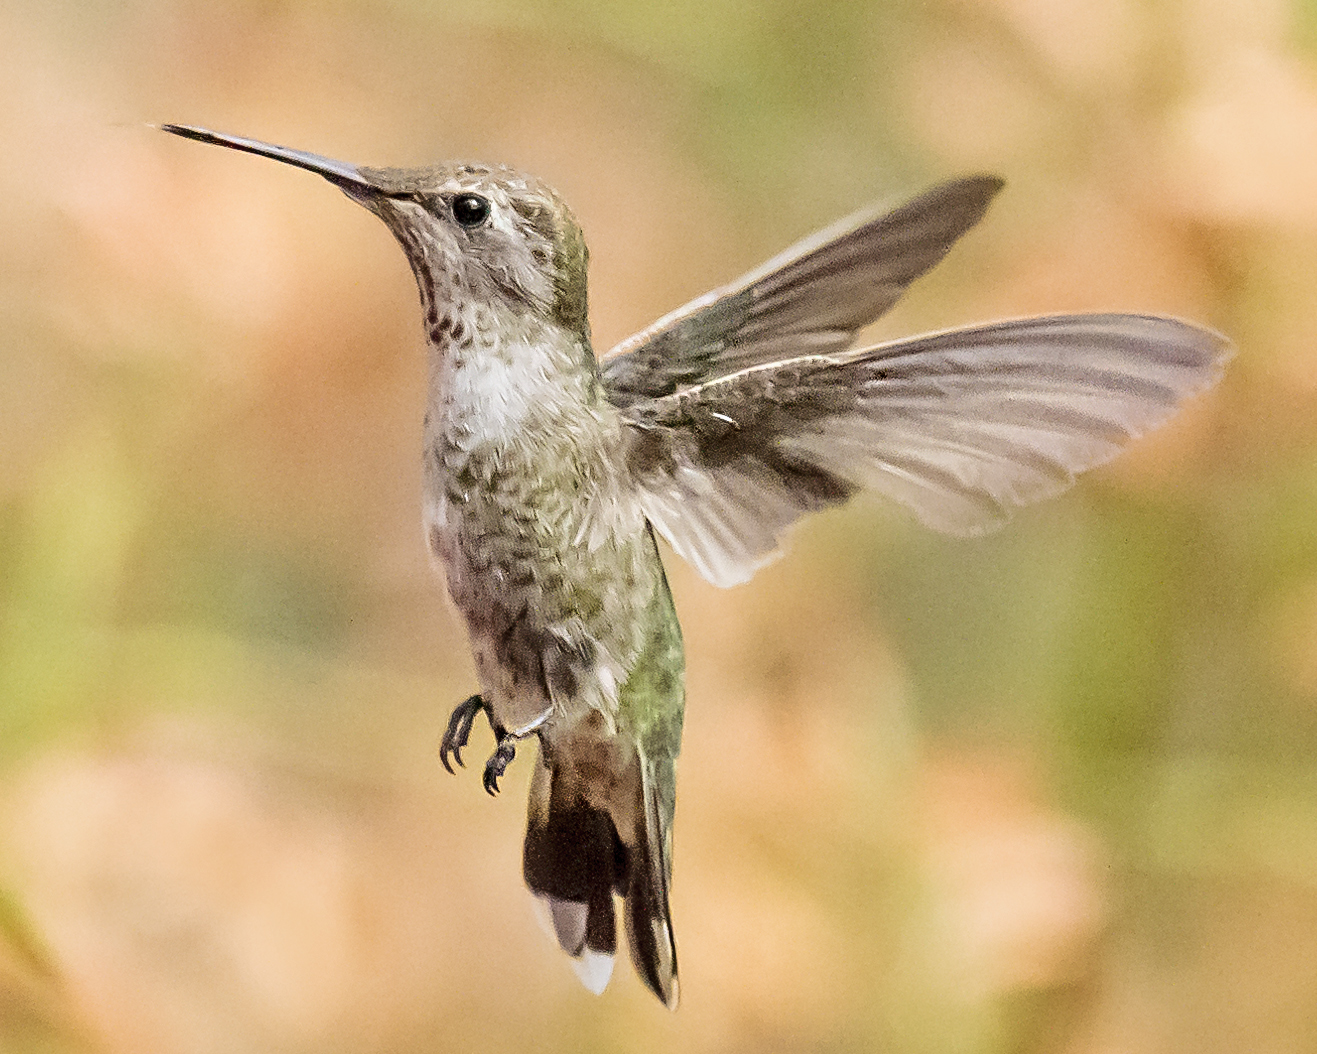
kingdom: Animalia
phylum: Chordata
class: Aves
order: Apodiformes
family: Trochilidae
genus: Calypte
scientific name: Calypte anna
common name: Anna's hummingbird
